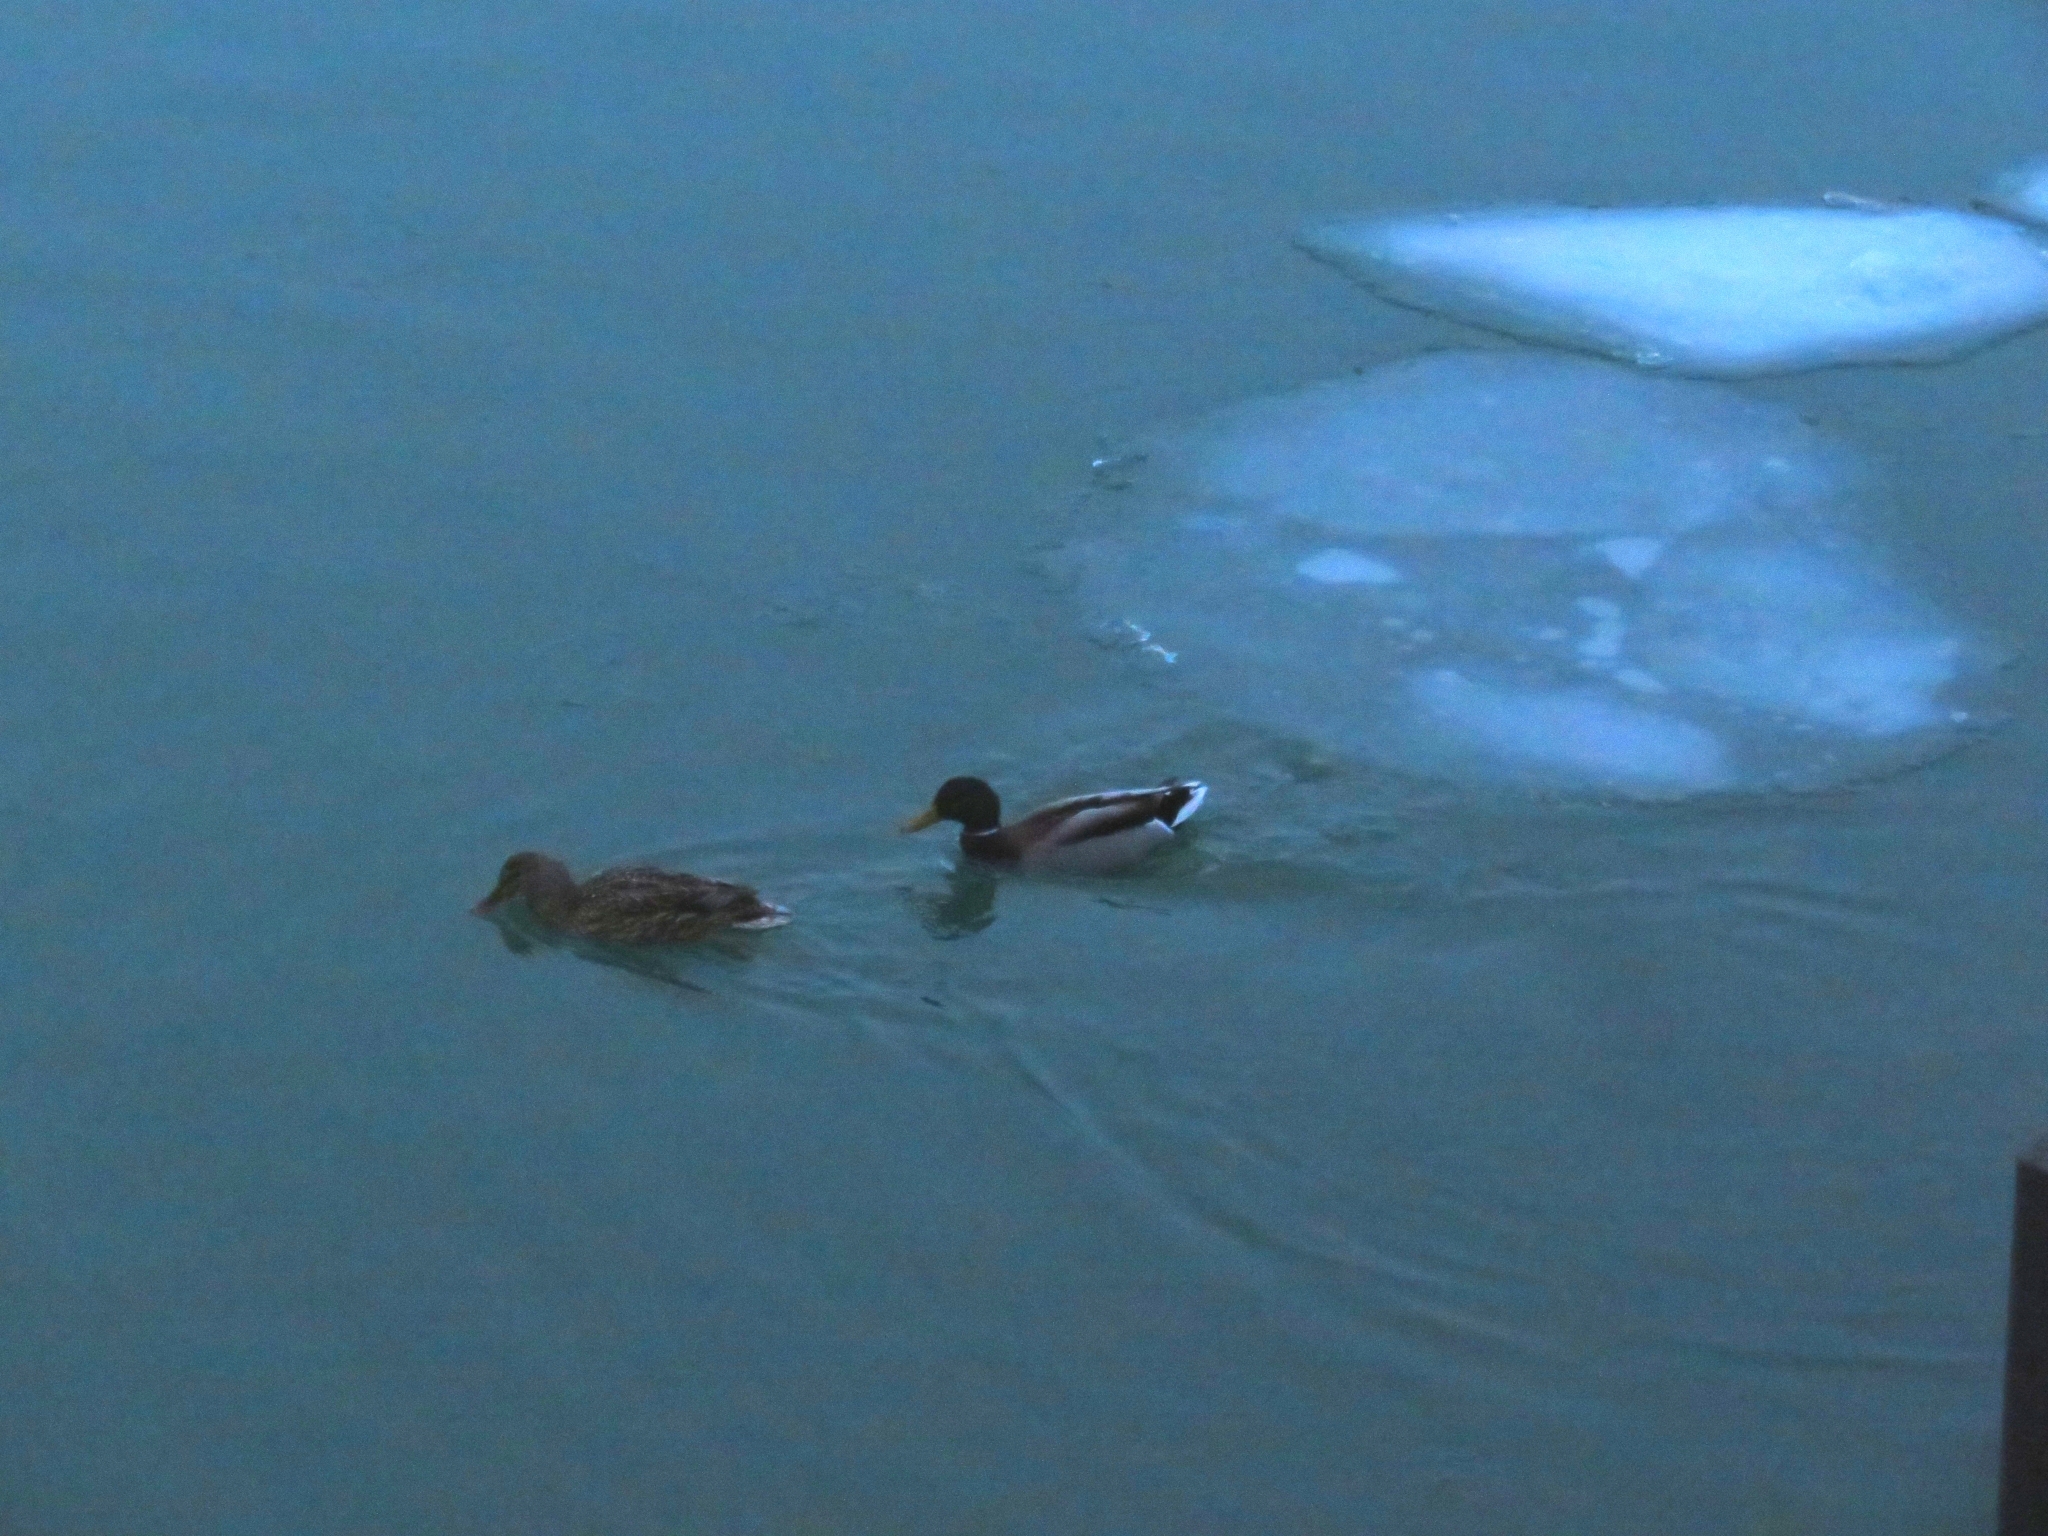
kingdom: Animalia
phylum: Chordata
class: Aves
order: Anseriformes
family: Anatidae
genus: Anas
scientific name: Anas platyrhynchos
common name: Mallard
